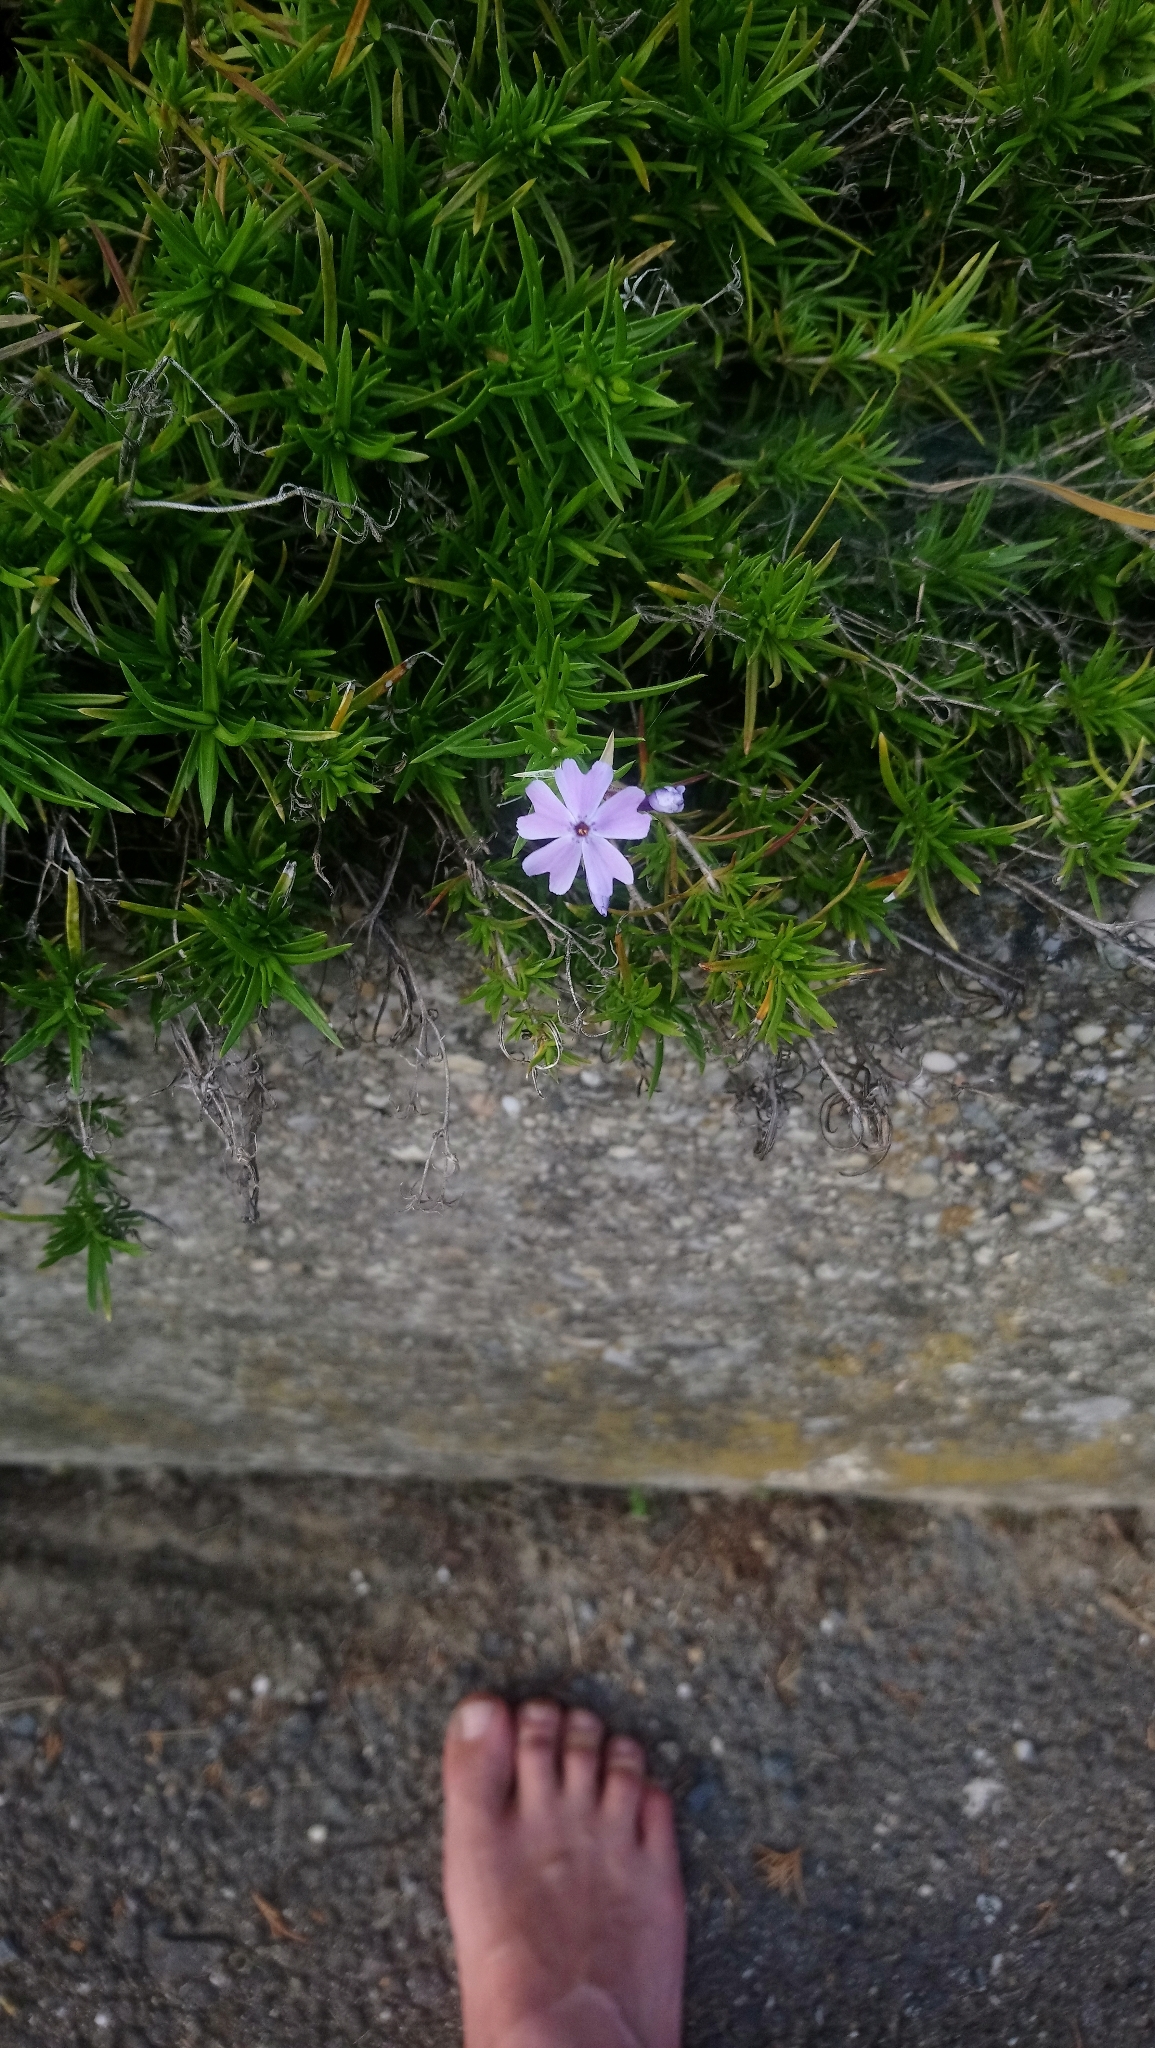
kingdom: Plantae
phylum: Tracheophyta
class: Magnoliopsida
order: Ericales
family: Polemoniaceae
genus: Phlox
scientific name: Phlox subulata
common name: Moss phlox
